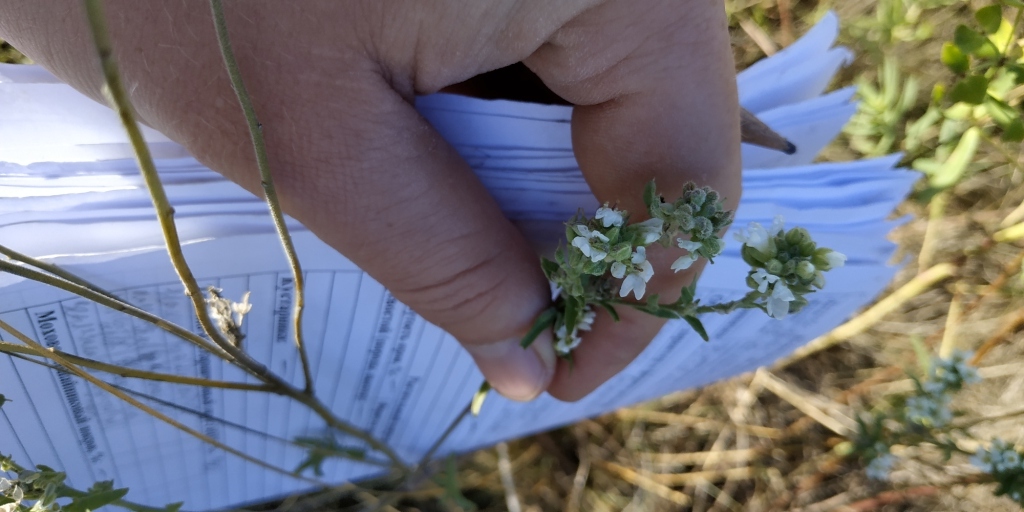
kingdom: Plantae
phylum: Tracheophyta
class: Magnoliopsida
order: Brassicales
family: Brassicaceae
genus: Berteroa
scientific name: Berteroa incana
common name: Hoary alison
